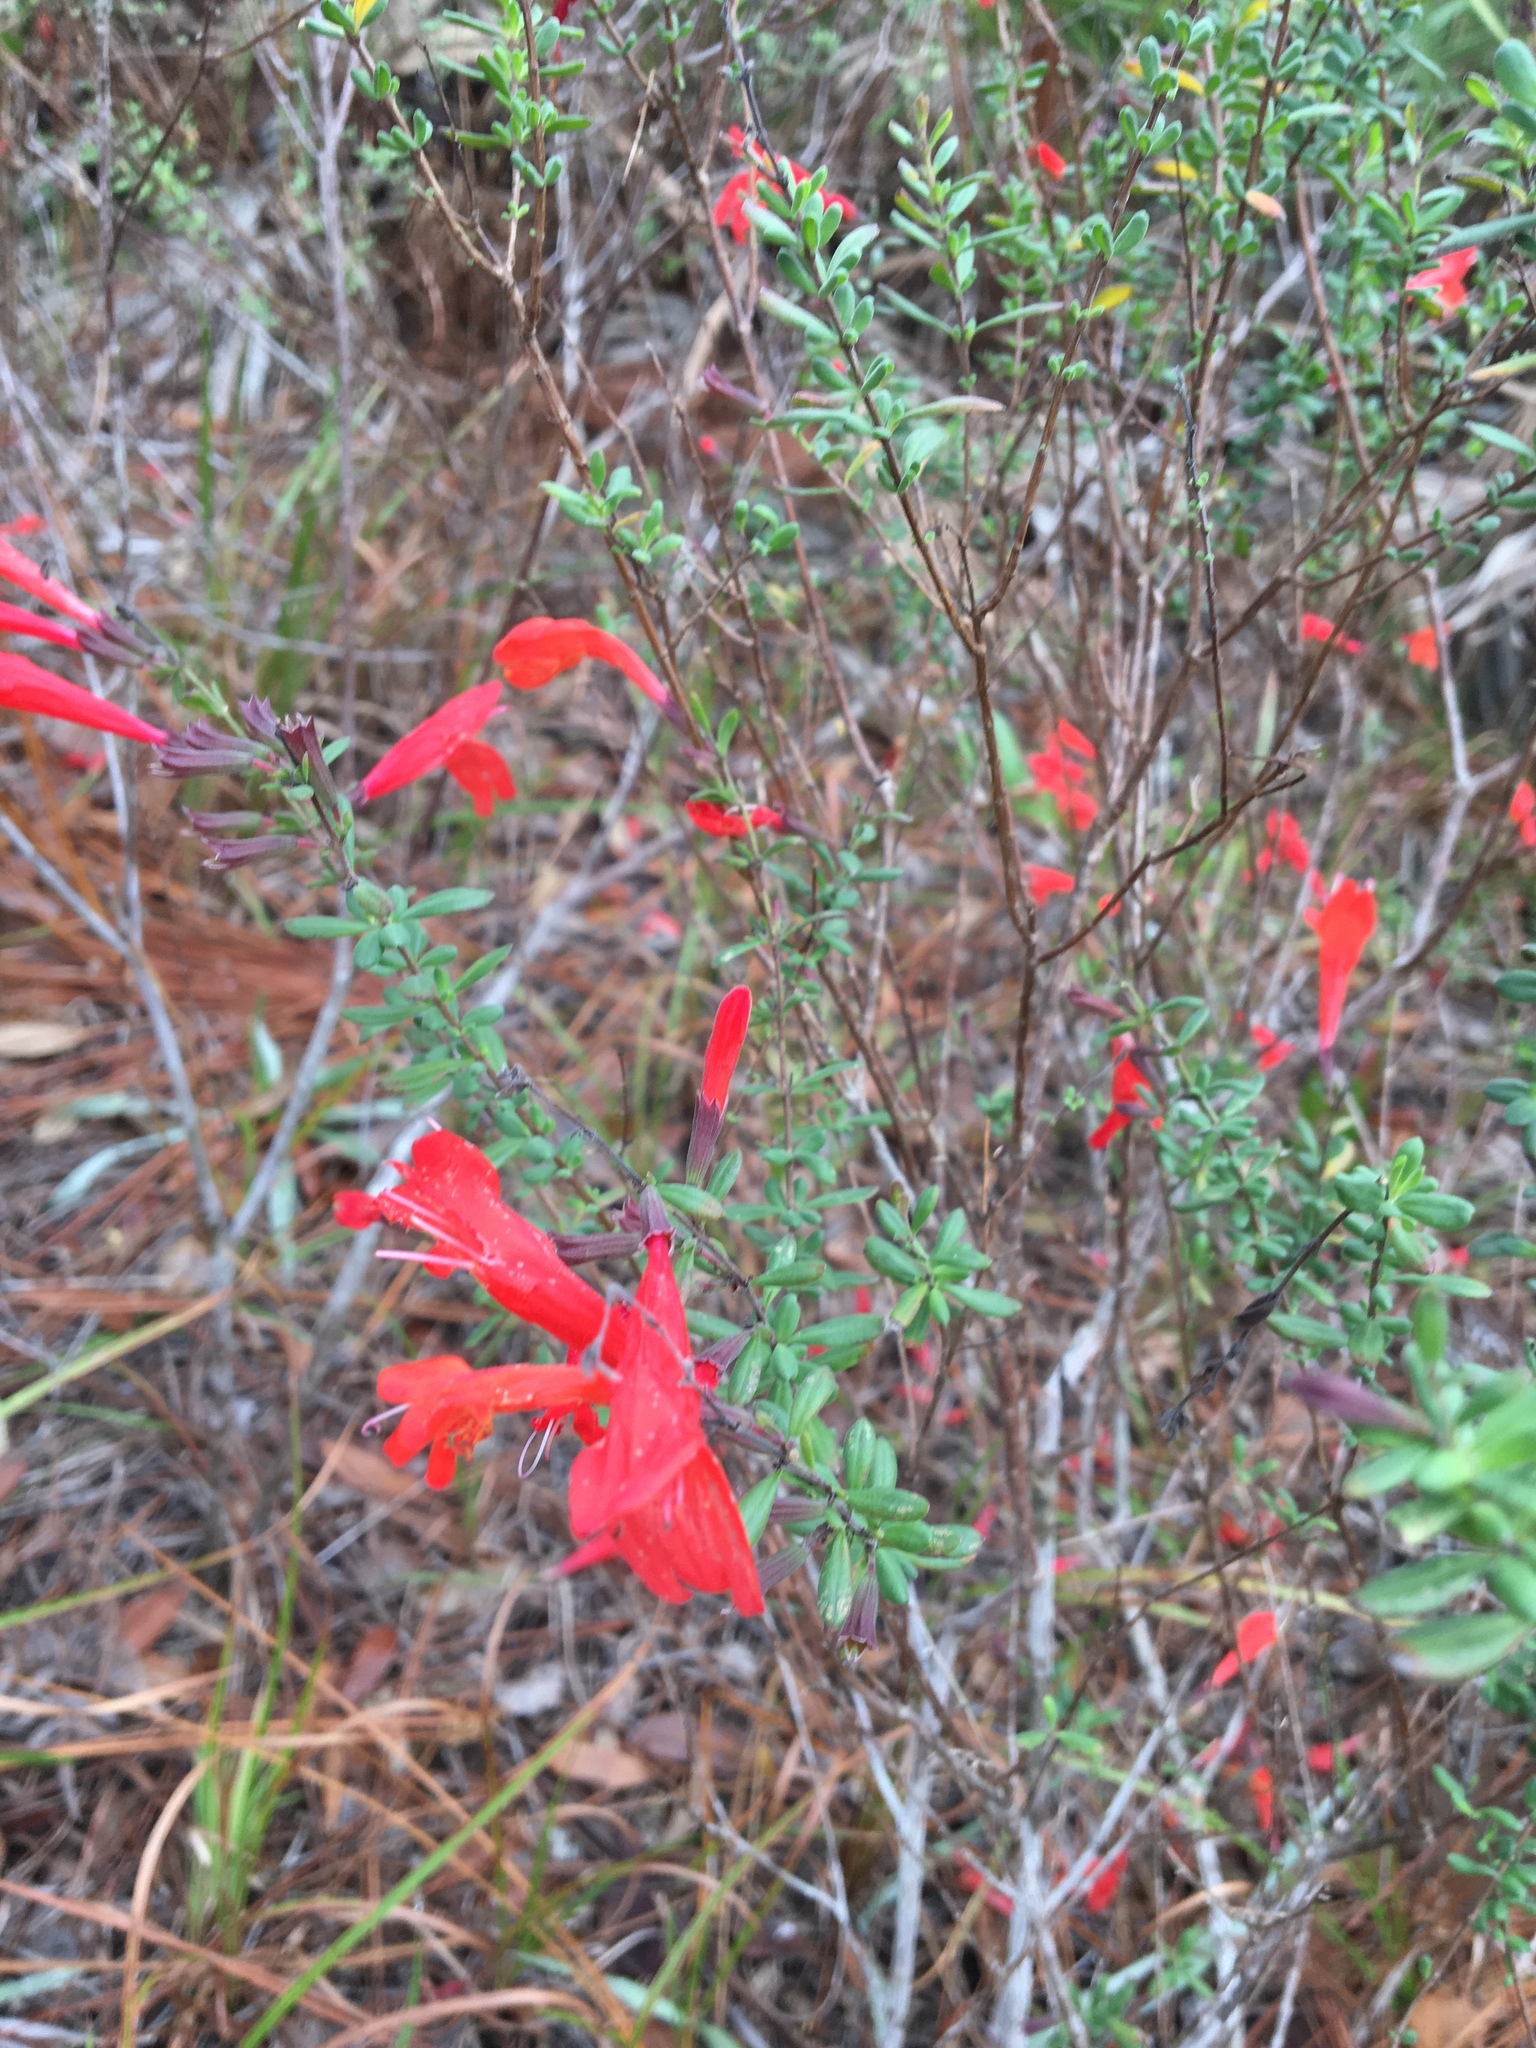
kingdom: Plantae
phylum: Tracheophyta
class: Magnoliopsida
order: Lamiales
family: Lamiaceae
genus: Clinopodium
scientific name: Clinopodium coccineum
